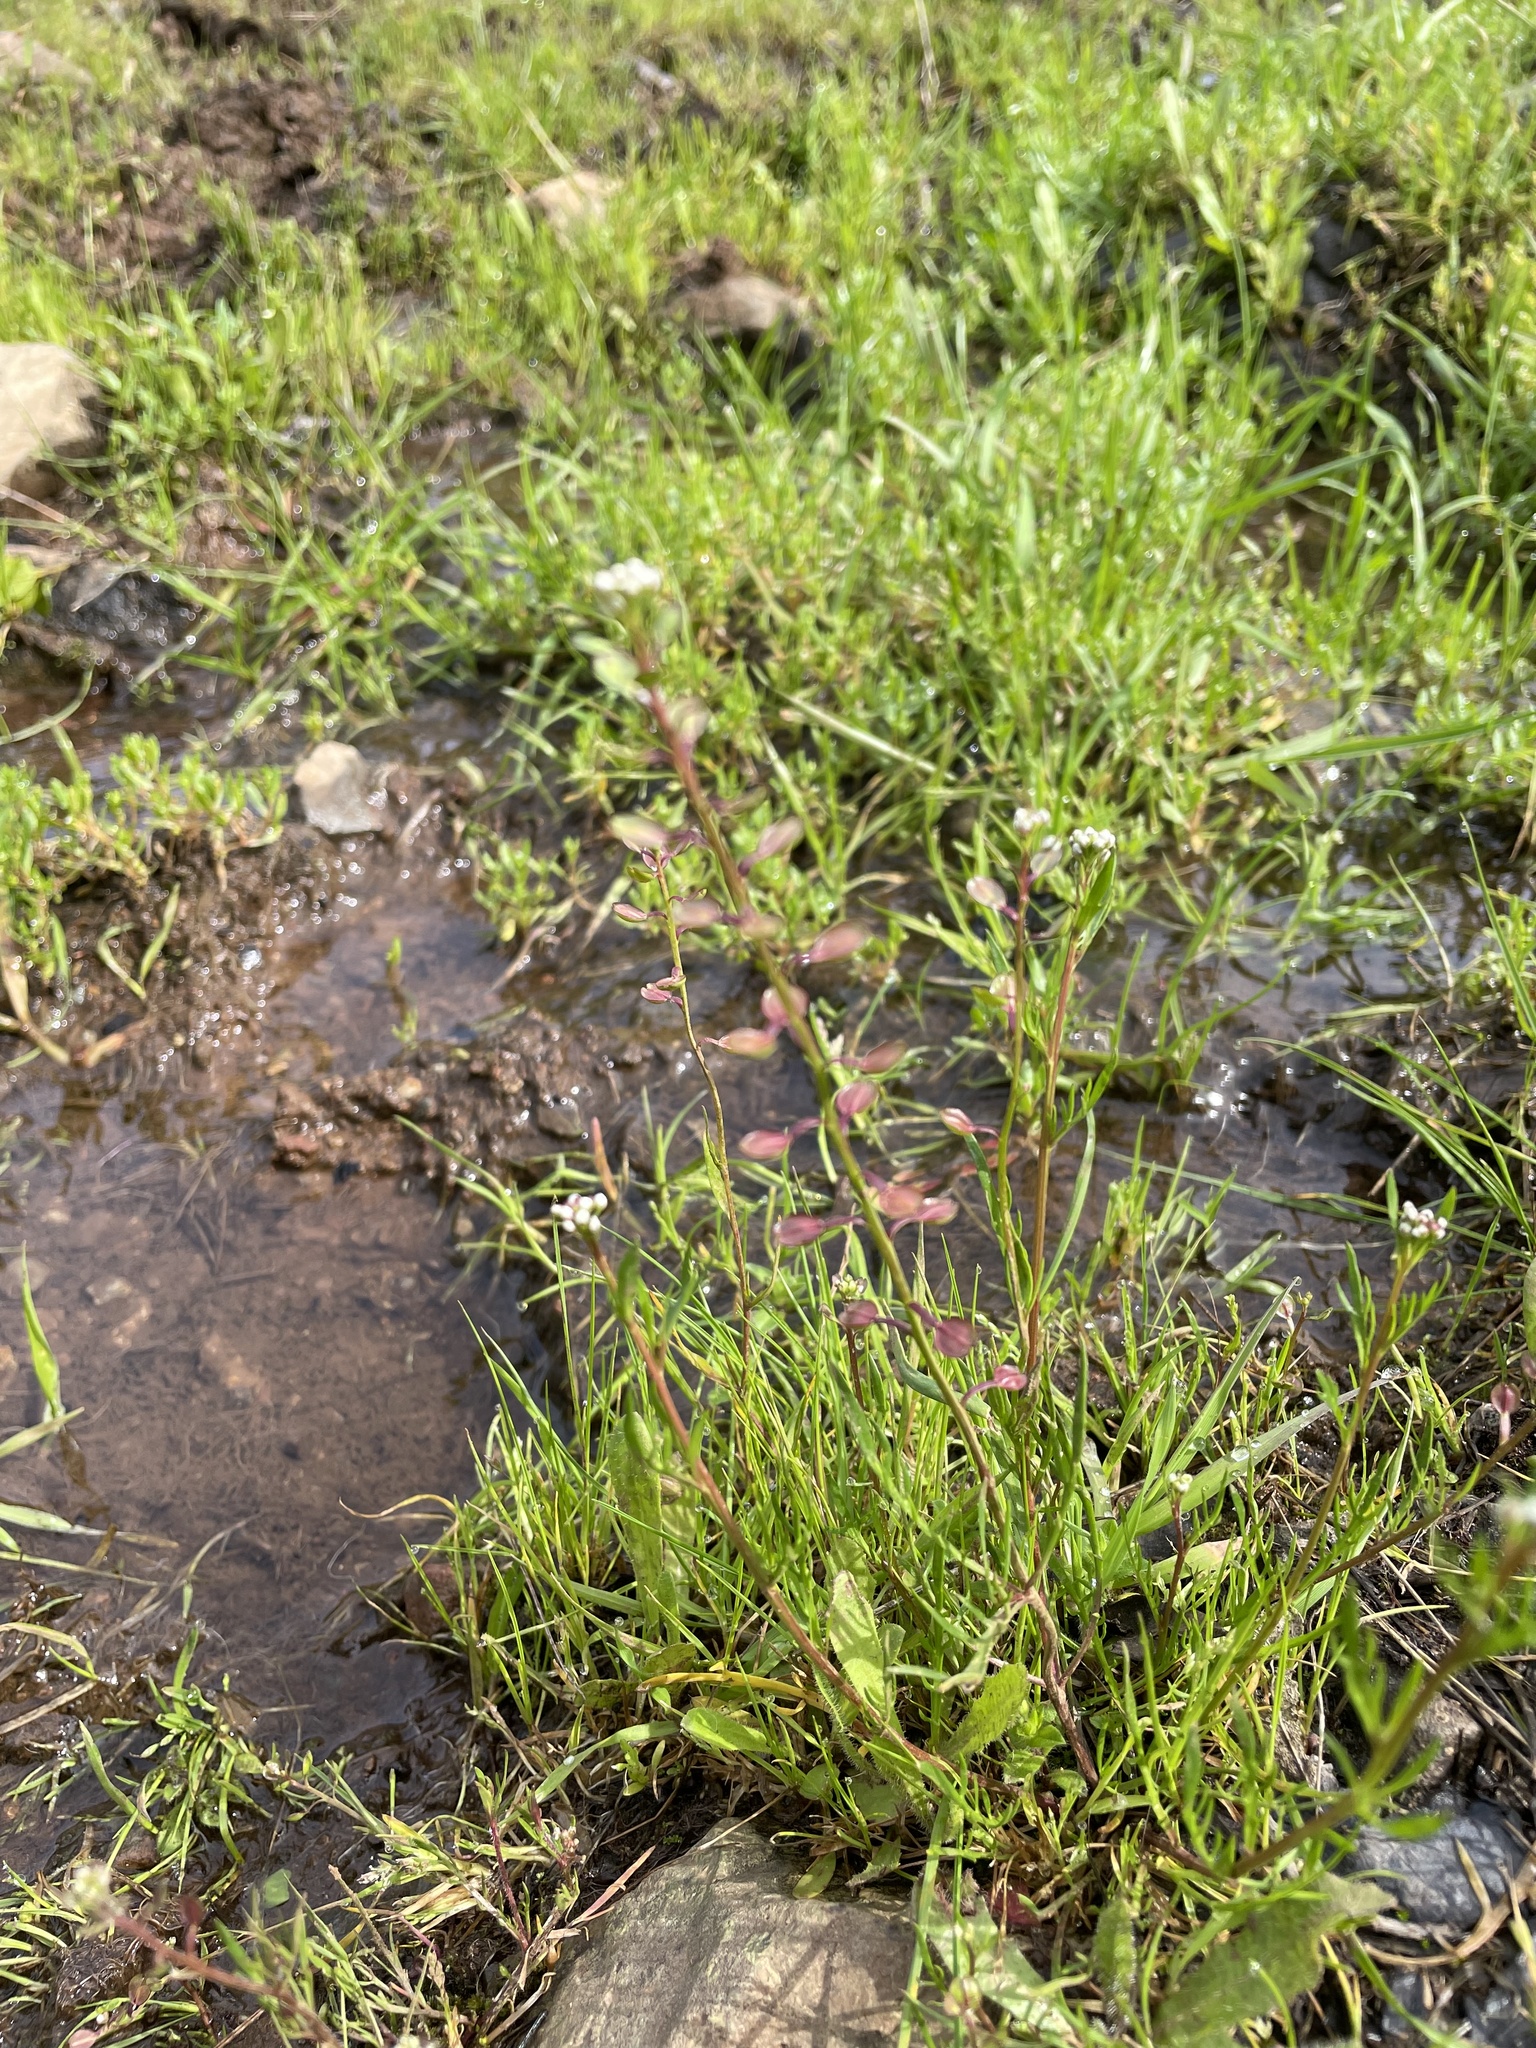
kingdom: Plantae
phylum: Tracheophyta
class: Magnoliopsida
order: Brassicales
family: Brassicaceae
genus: Lepidium
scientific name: Lepidium nitidum
